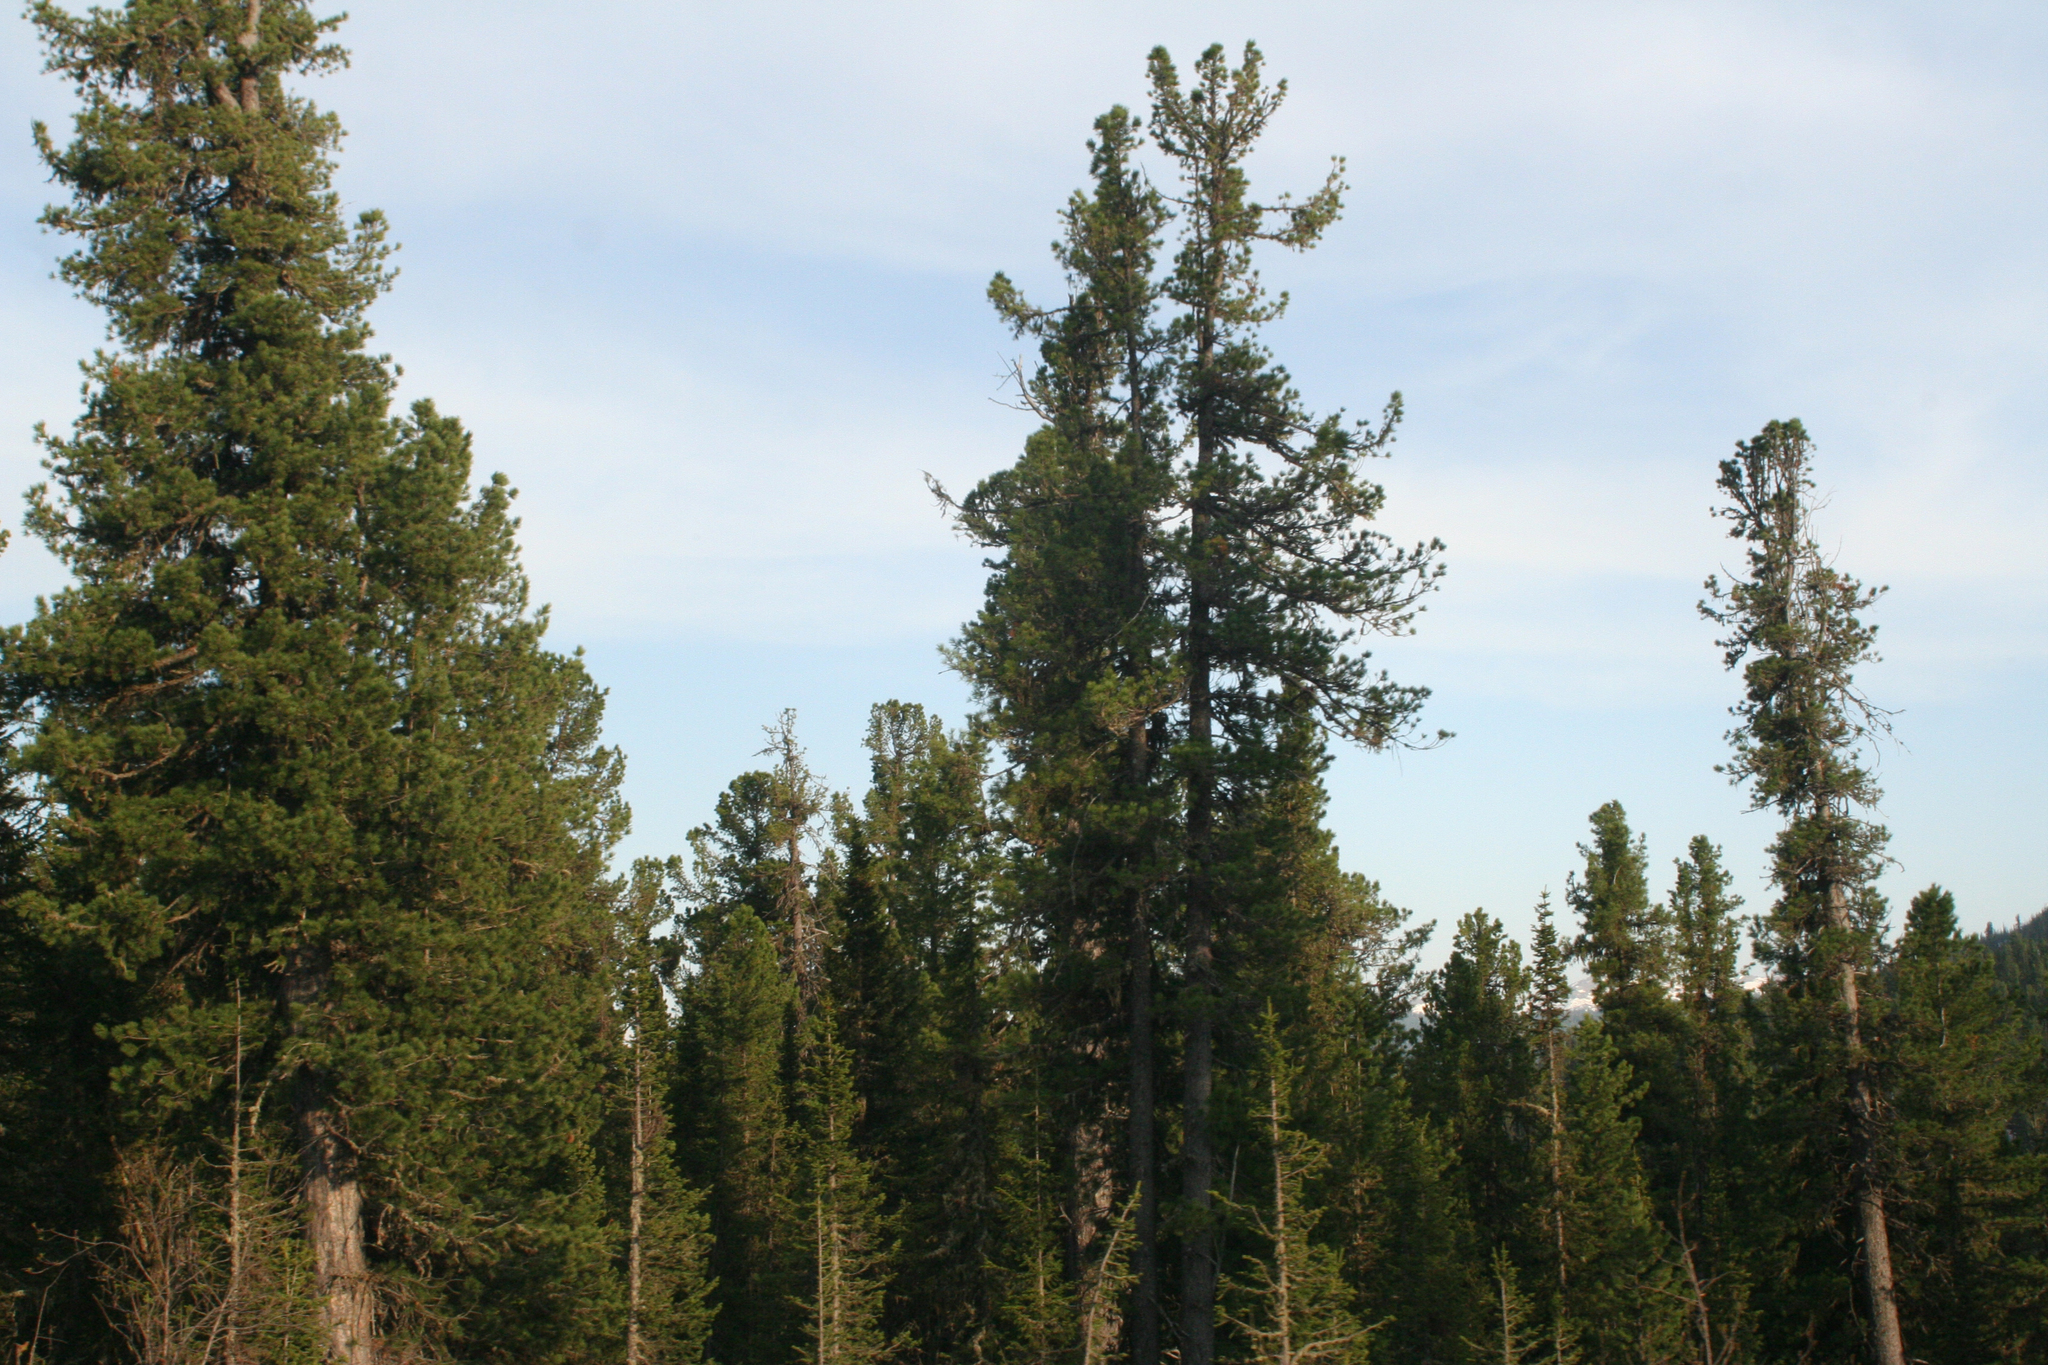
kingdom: Plantae
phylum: Tracheophyta
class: Pinopsida
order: Pinales
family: Pinaceae
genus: Pinus
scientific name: Pinus sibirica
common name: Siberian pine
